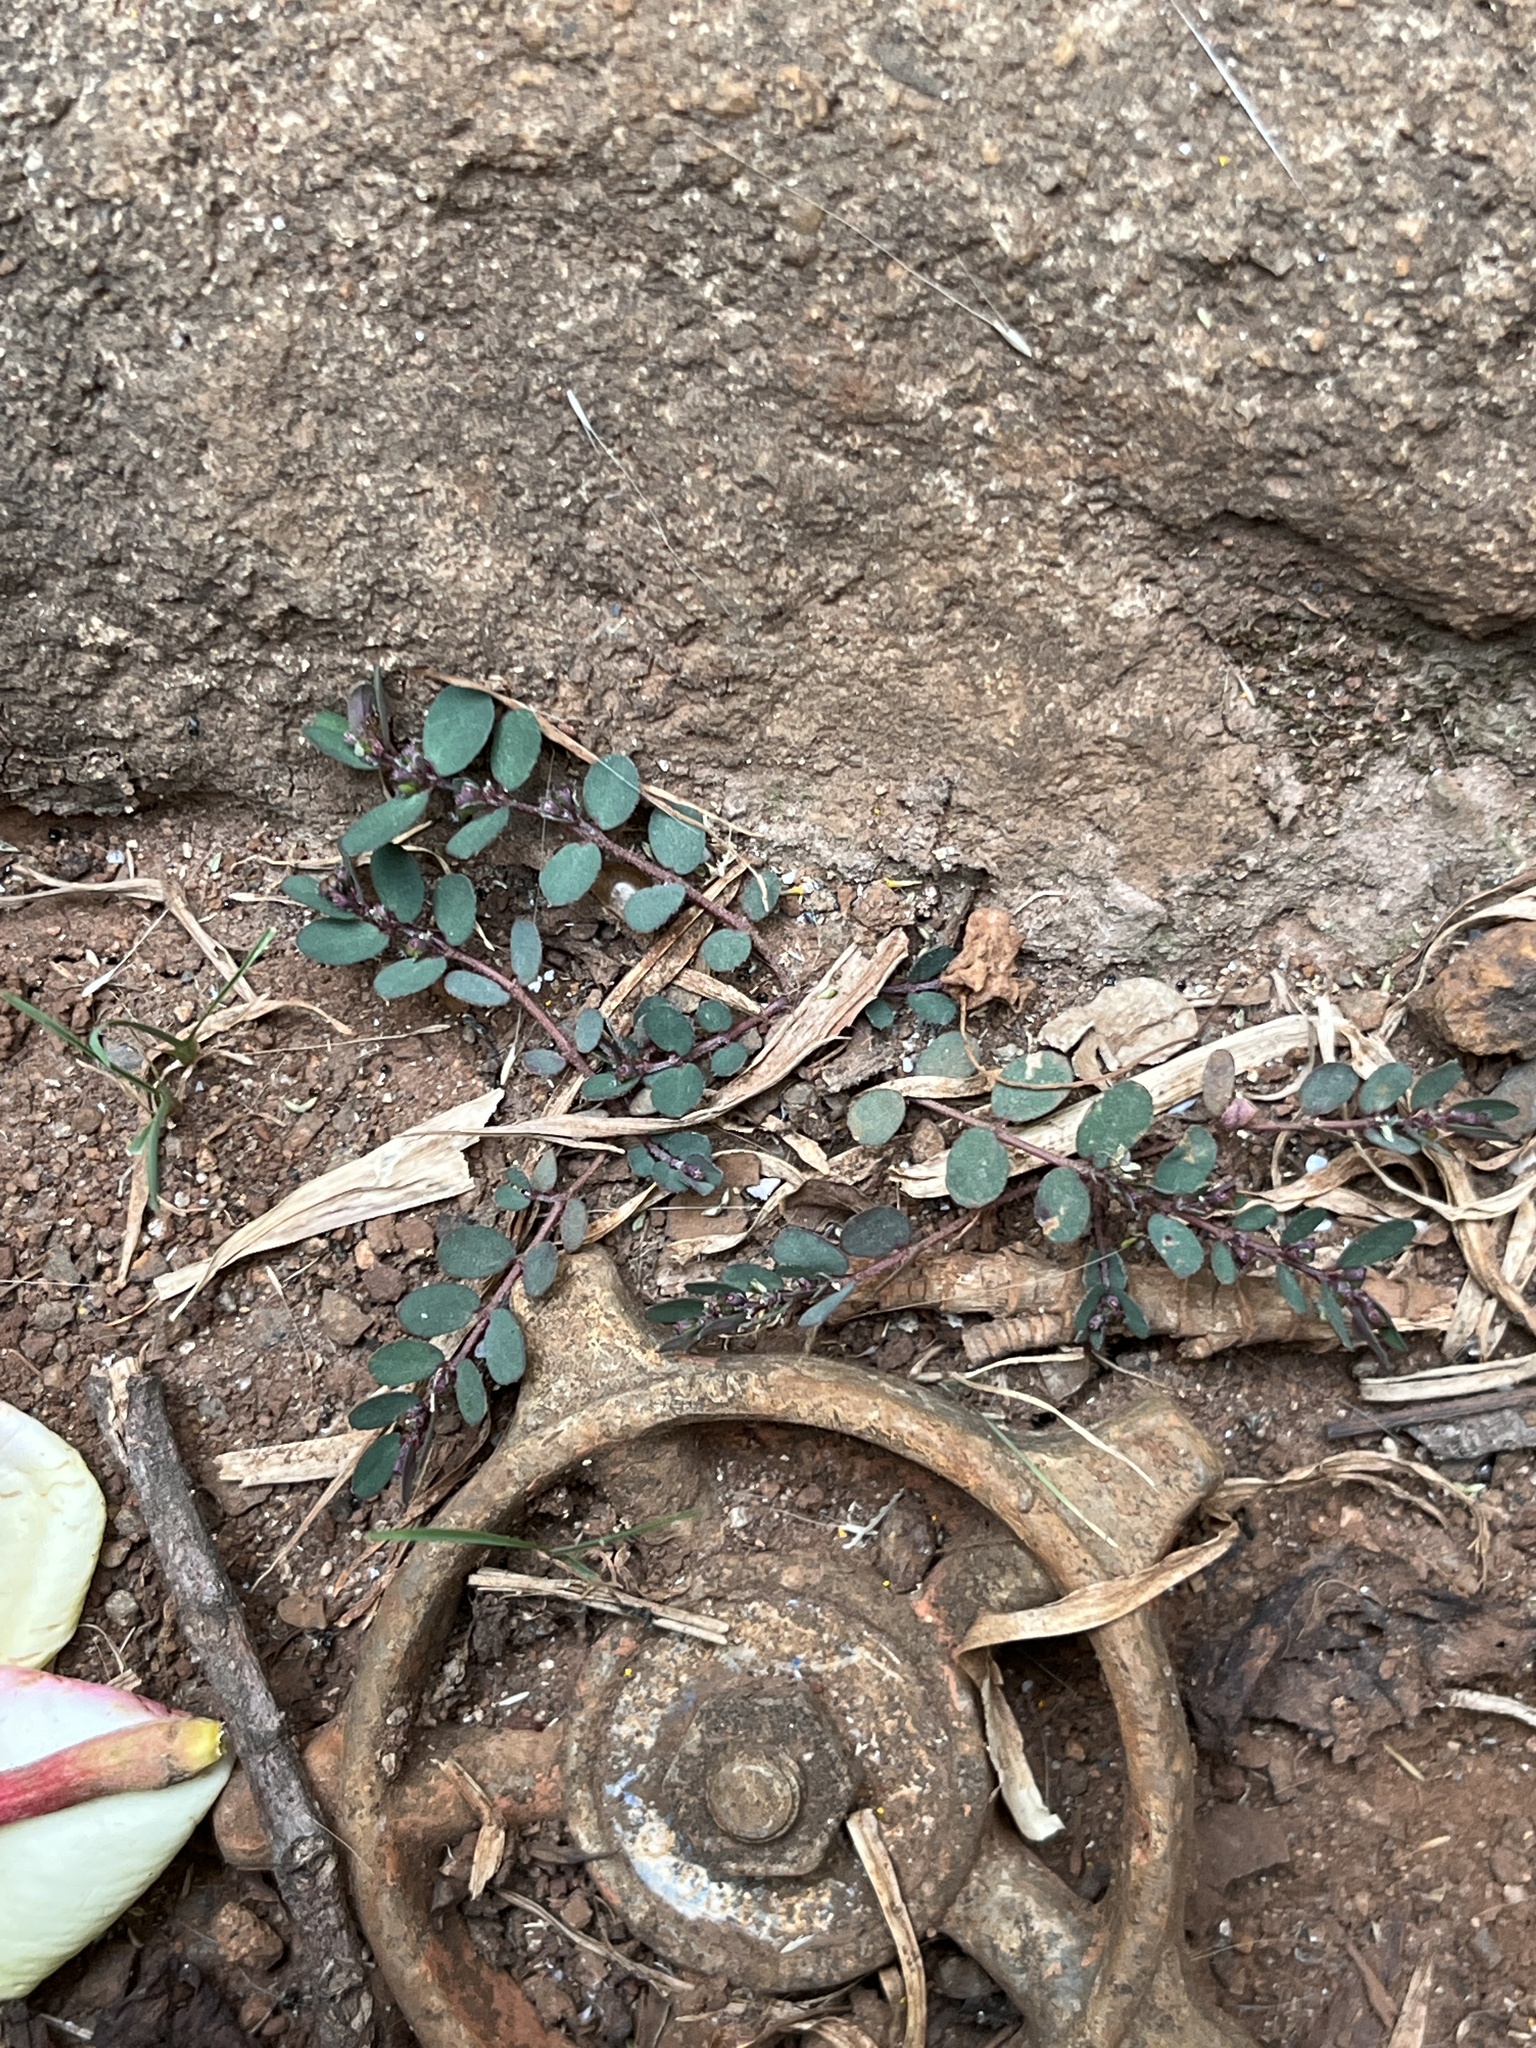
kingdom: Plantae
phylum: Tracheophyta
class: Magnoliopsida
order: Malpighiales
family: Euphorbiaceae
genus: Euphorbia
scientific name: Euphorbia prostrata
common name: Prostrate sandmat
